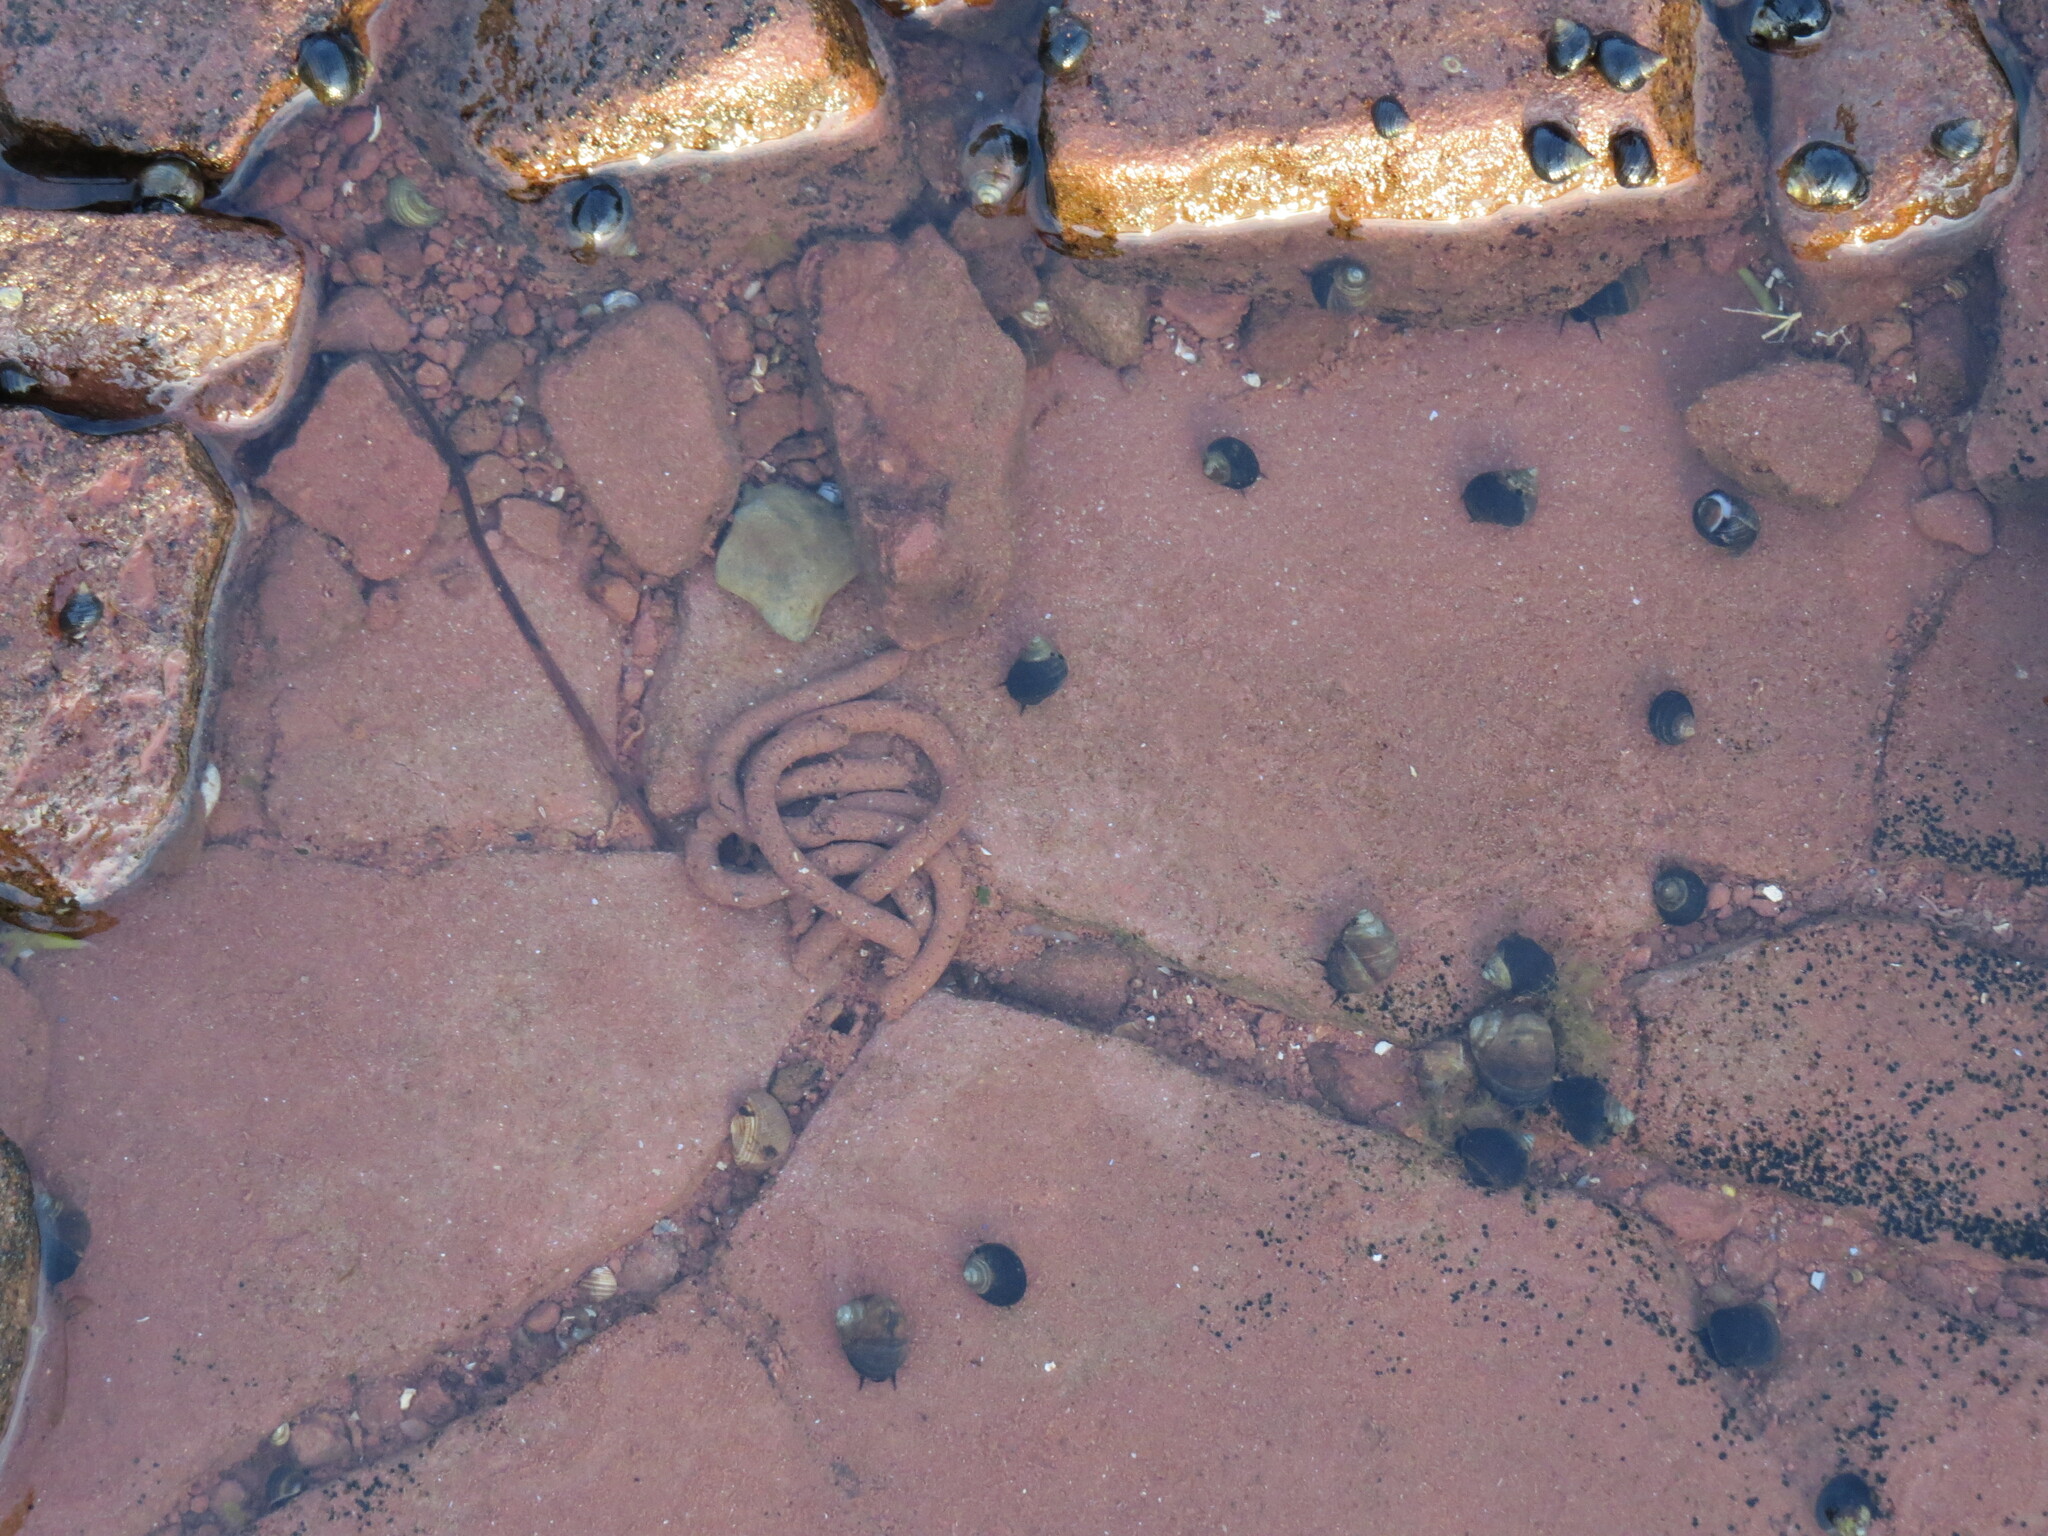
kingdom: Animalia
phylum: Mollusca
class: Gastropoda
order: Littorinimorpha
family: Littorinidae
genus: Littorina
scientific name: Littorina littorea
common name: Common periwinkle
